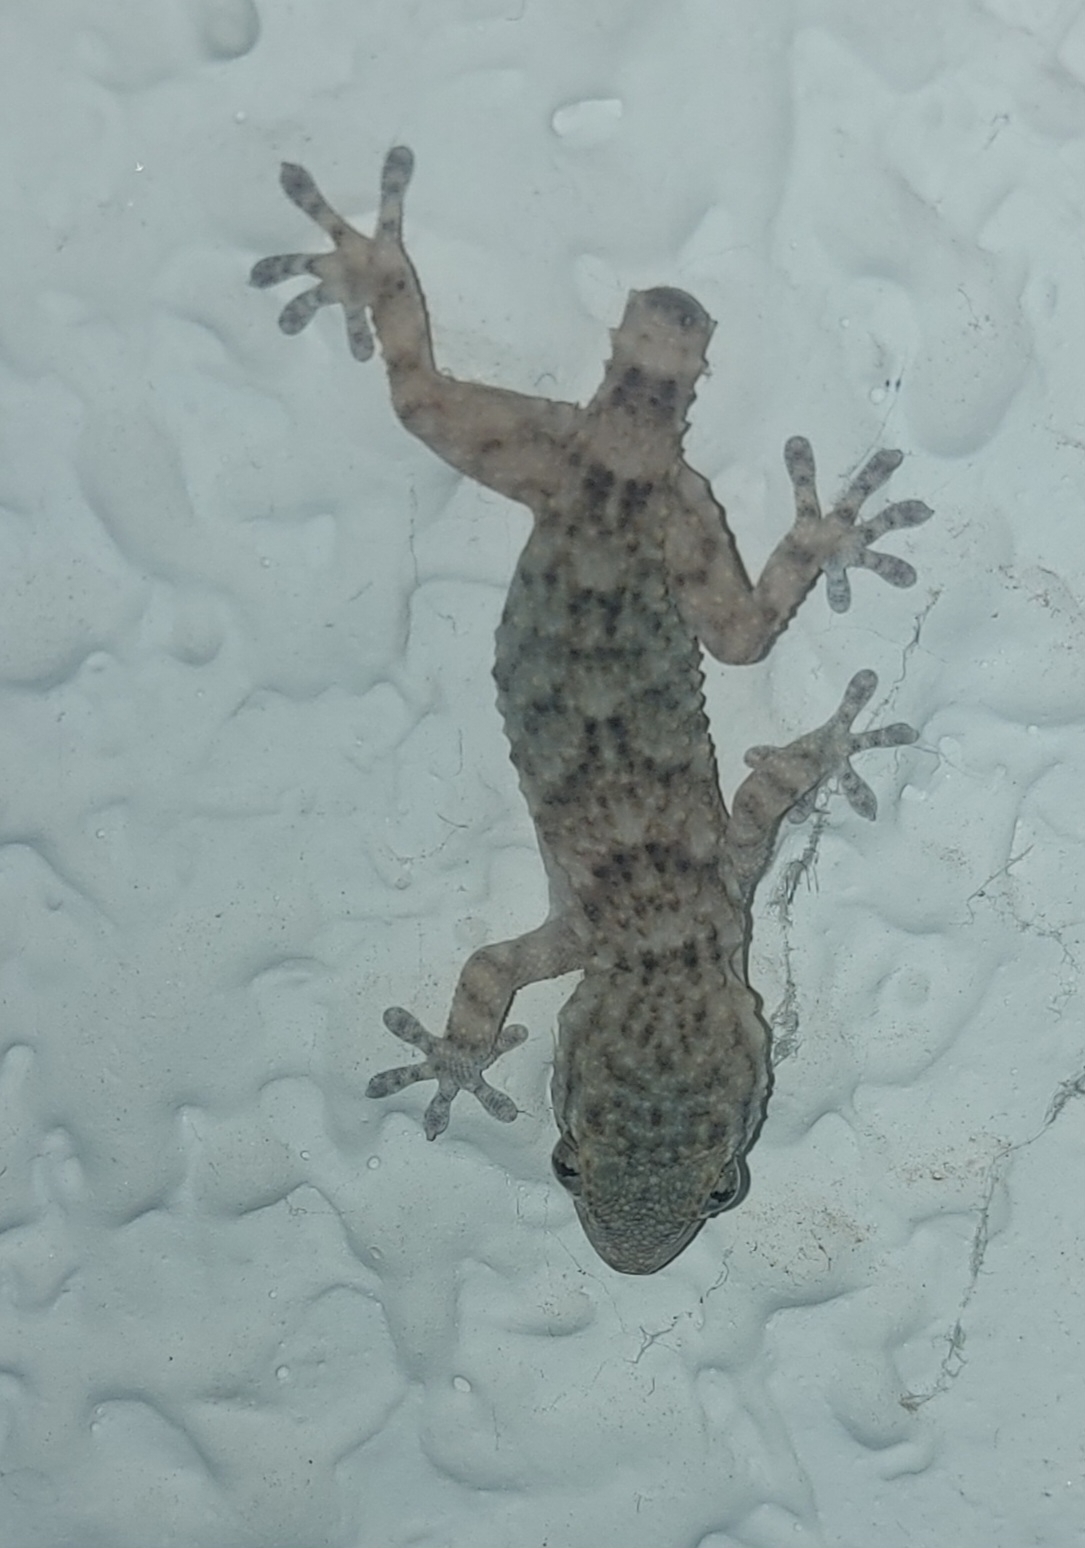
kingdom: Animalia
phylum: Chordata
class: Squamata
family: Phyllodactylidae
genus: Tarentola
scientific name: Tarentola mauritanica
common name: Moorish gecko
